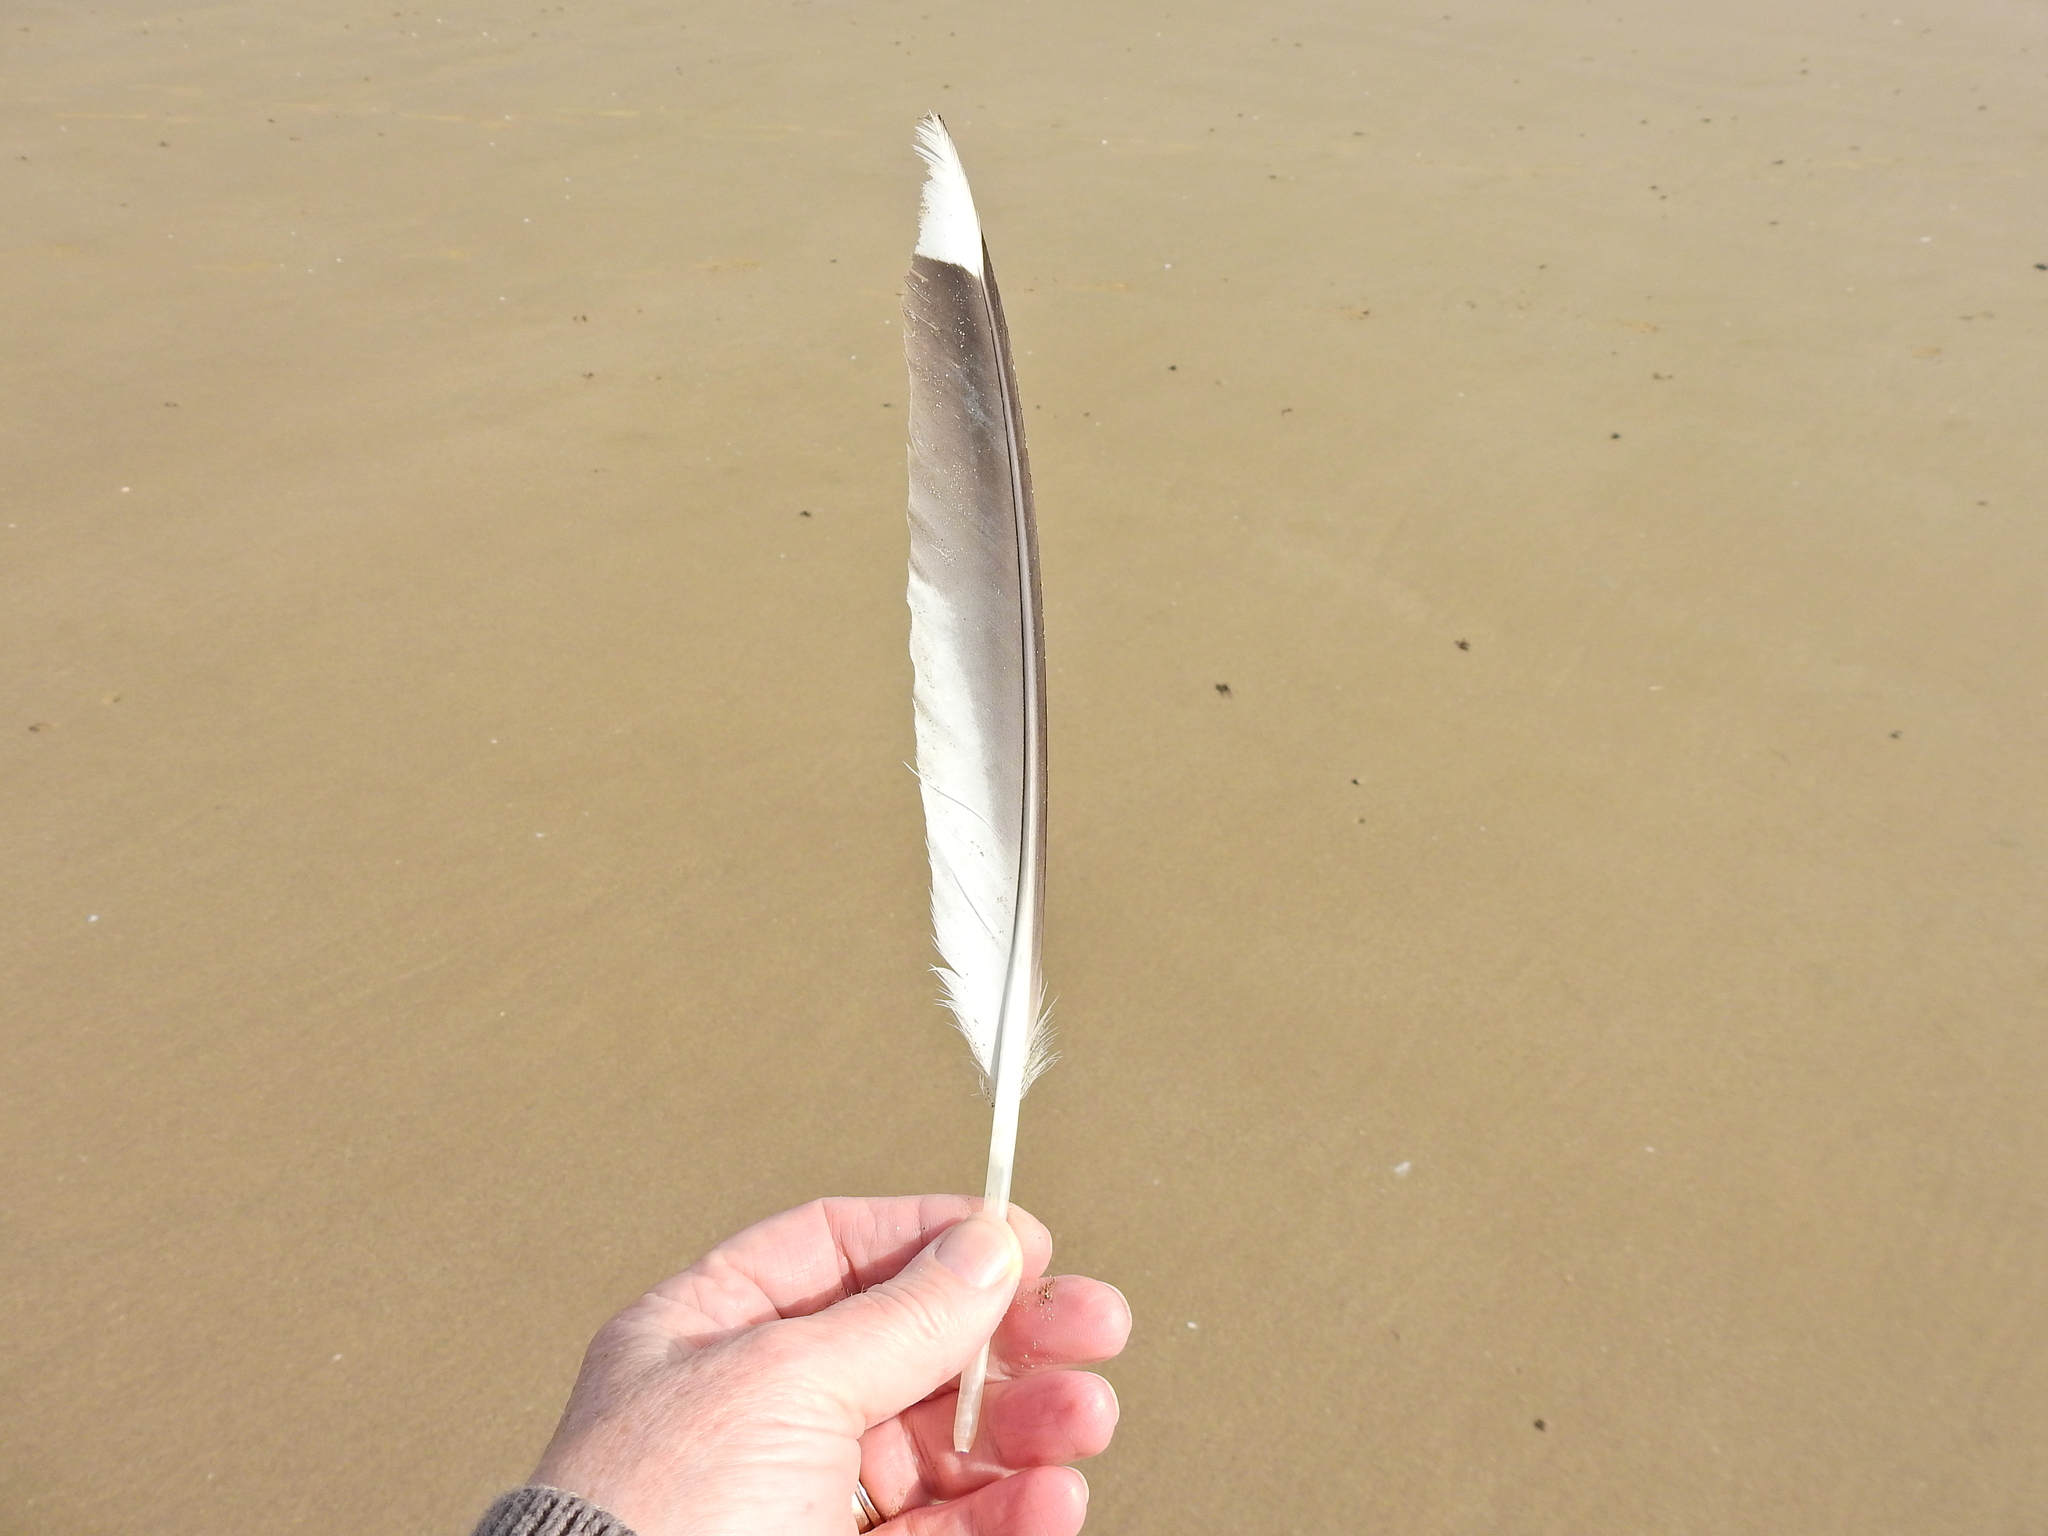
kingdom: Animalia
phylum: Chordata
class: Aves
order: Charadriiformes
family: Laridae
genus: Larus
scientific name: Larus argentatus
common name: Herring gull
